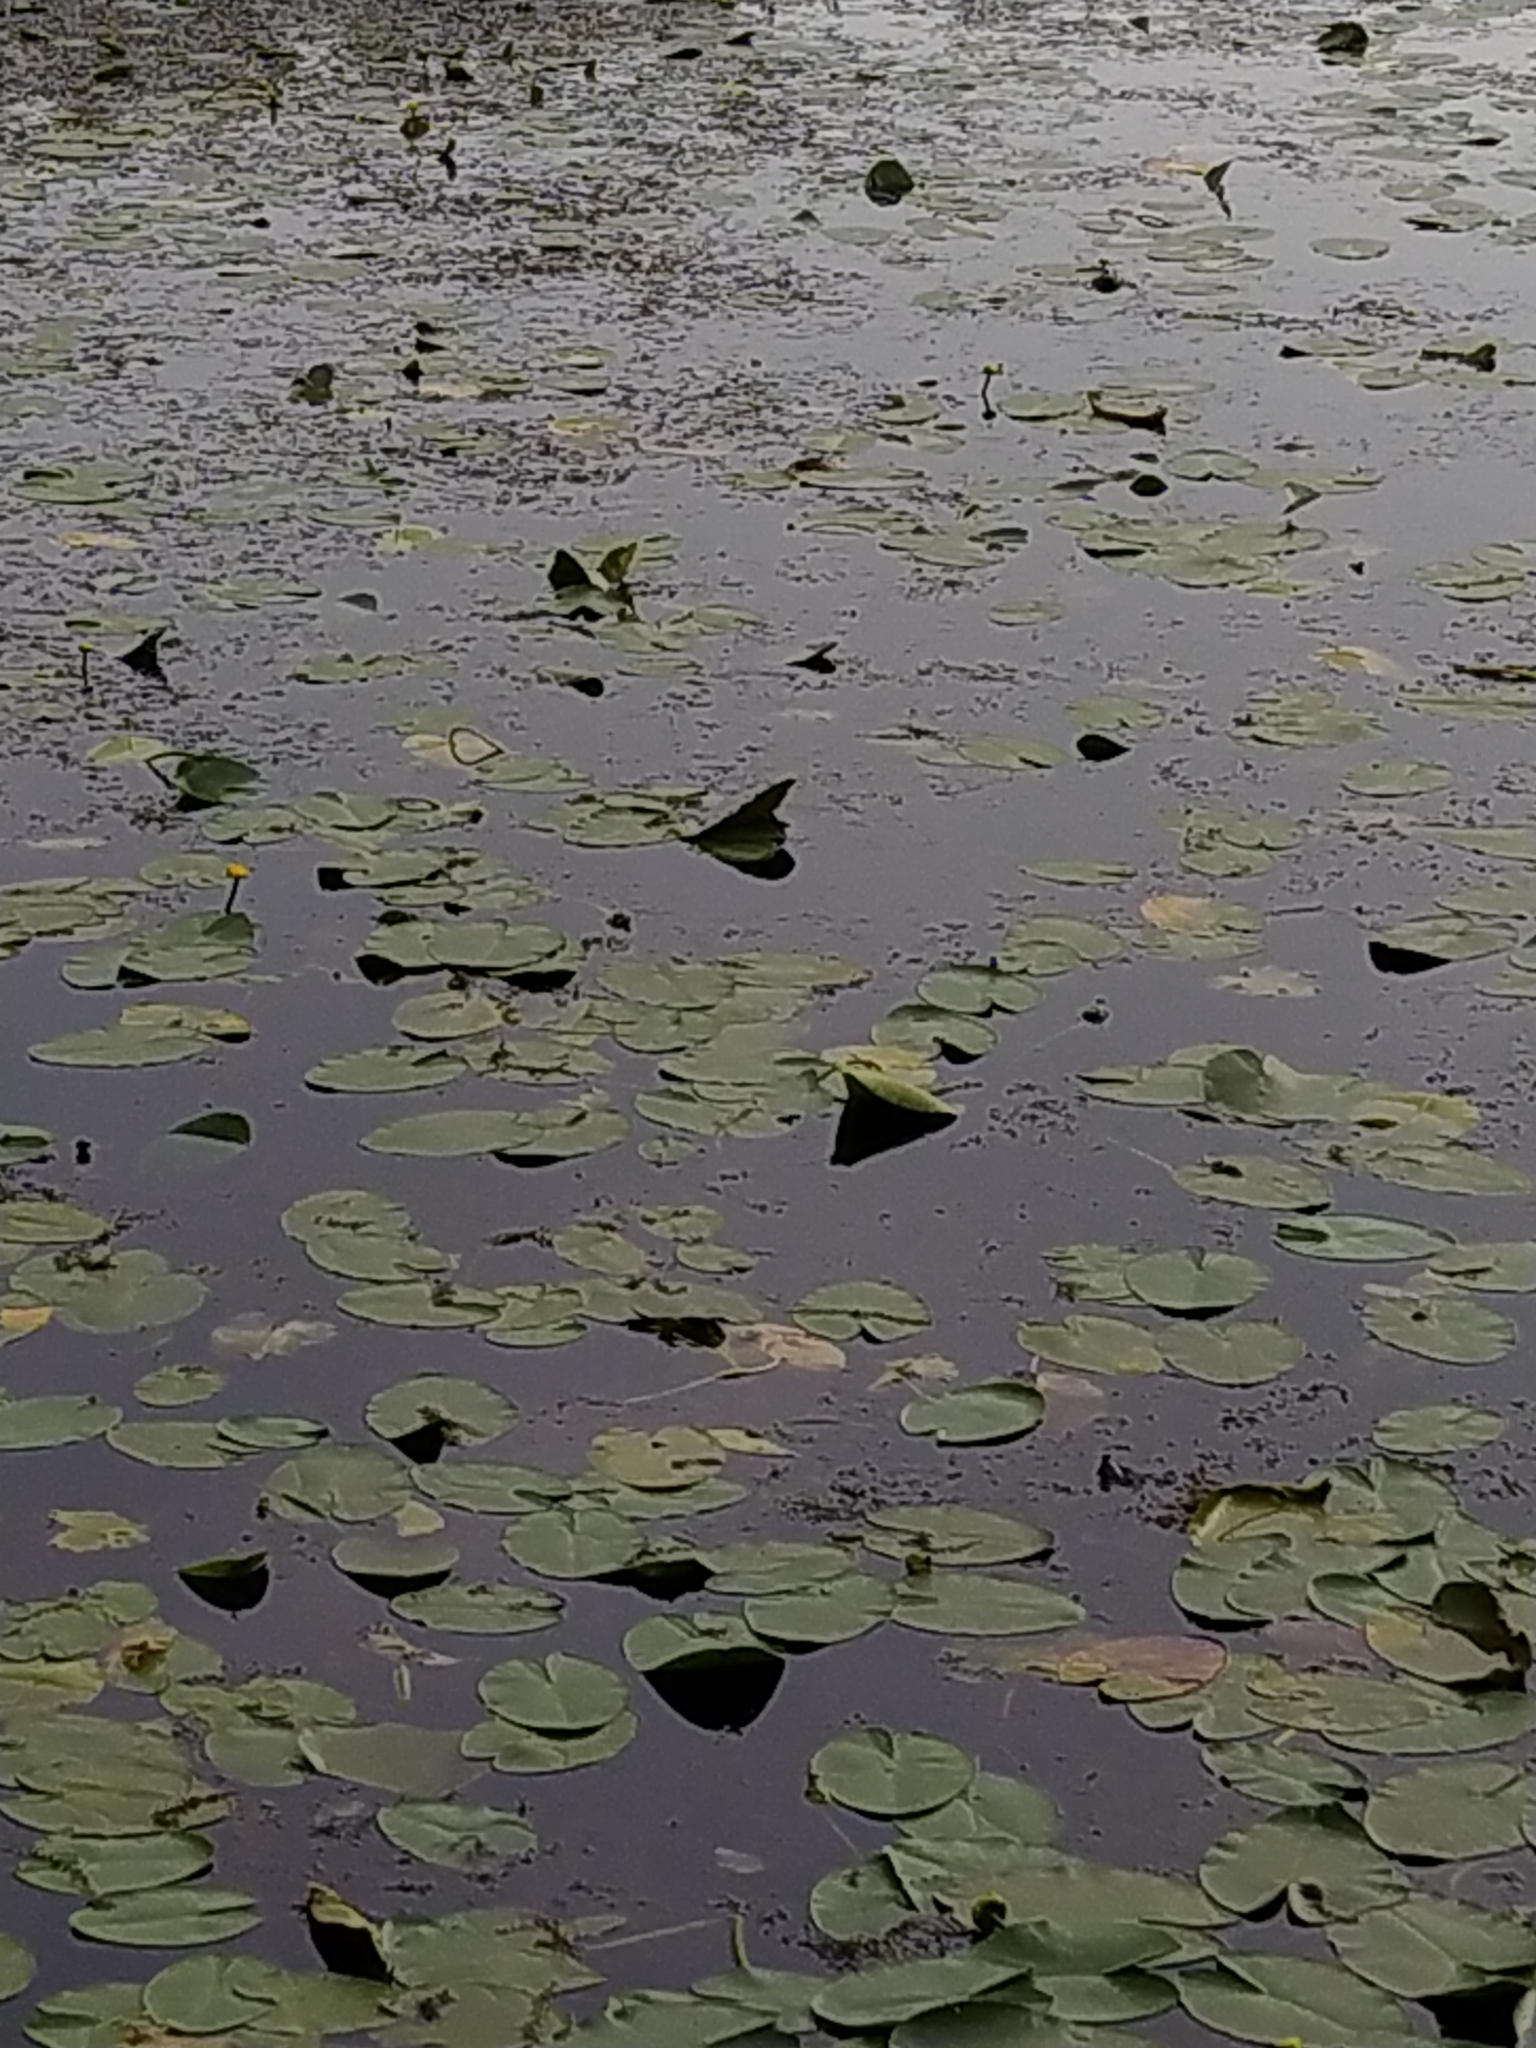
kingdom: Plantae
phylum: Tracheophyta
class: Magnoliopsida
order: Nymphaeales
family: Nymphaeaceae
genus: Nuphar
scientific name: Nuphar lutea
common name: Yellow water-lily
